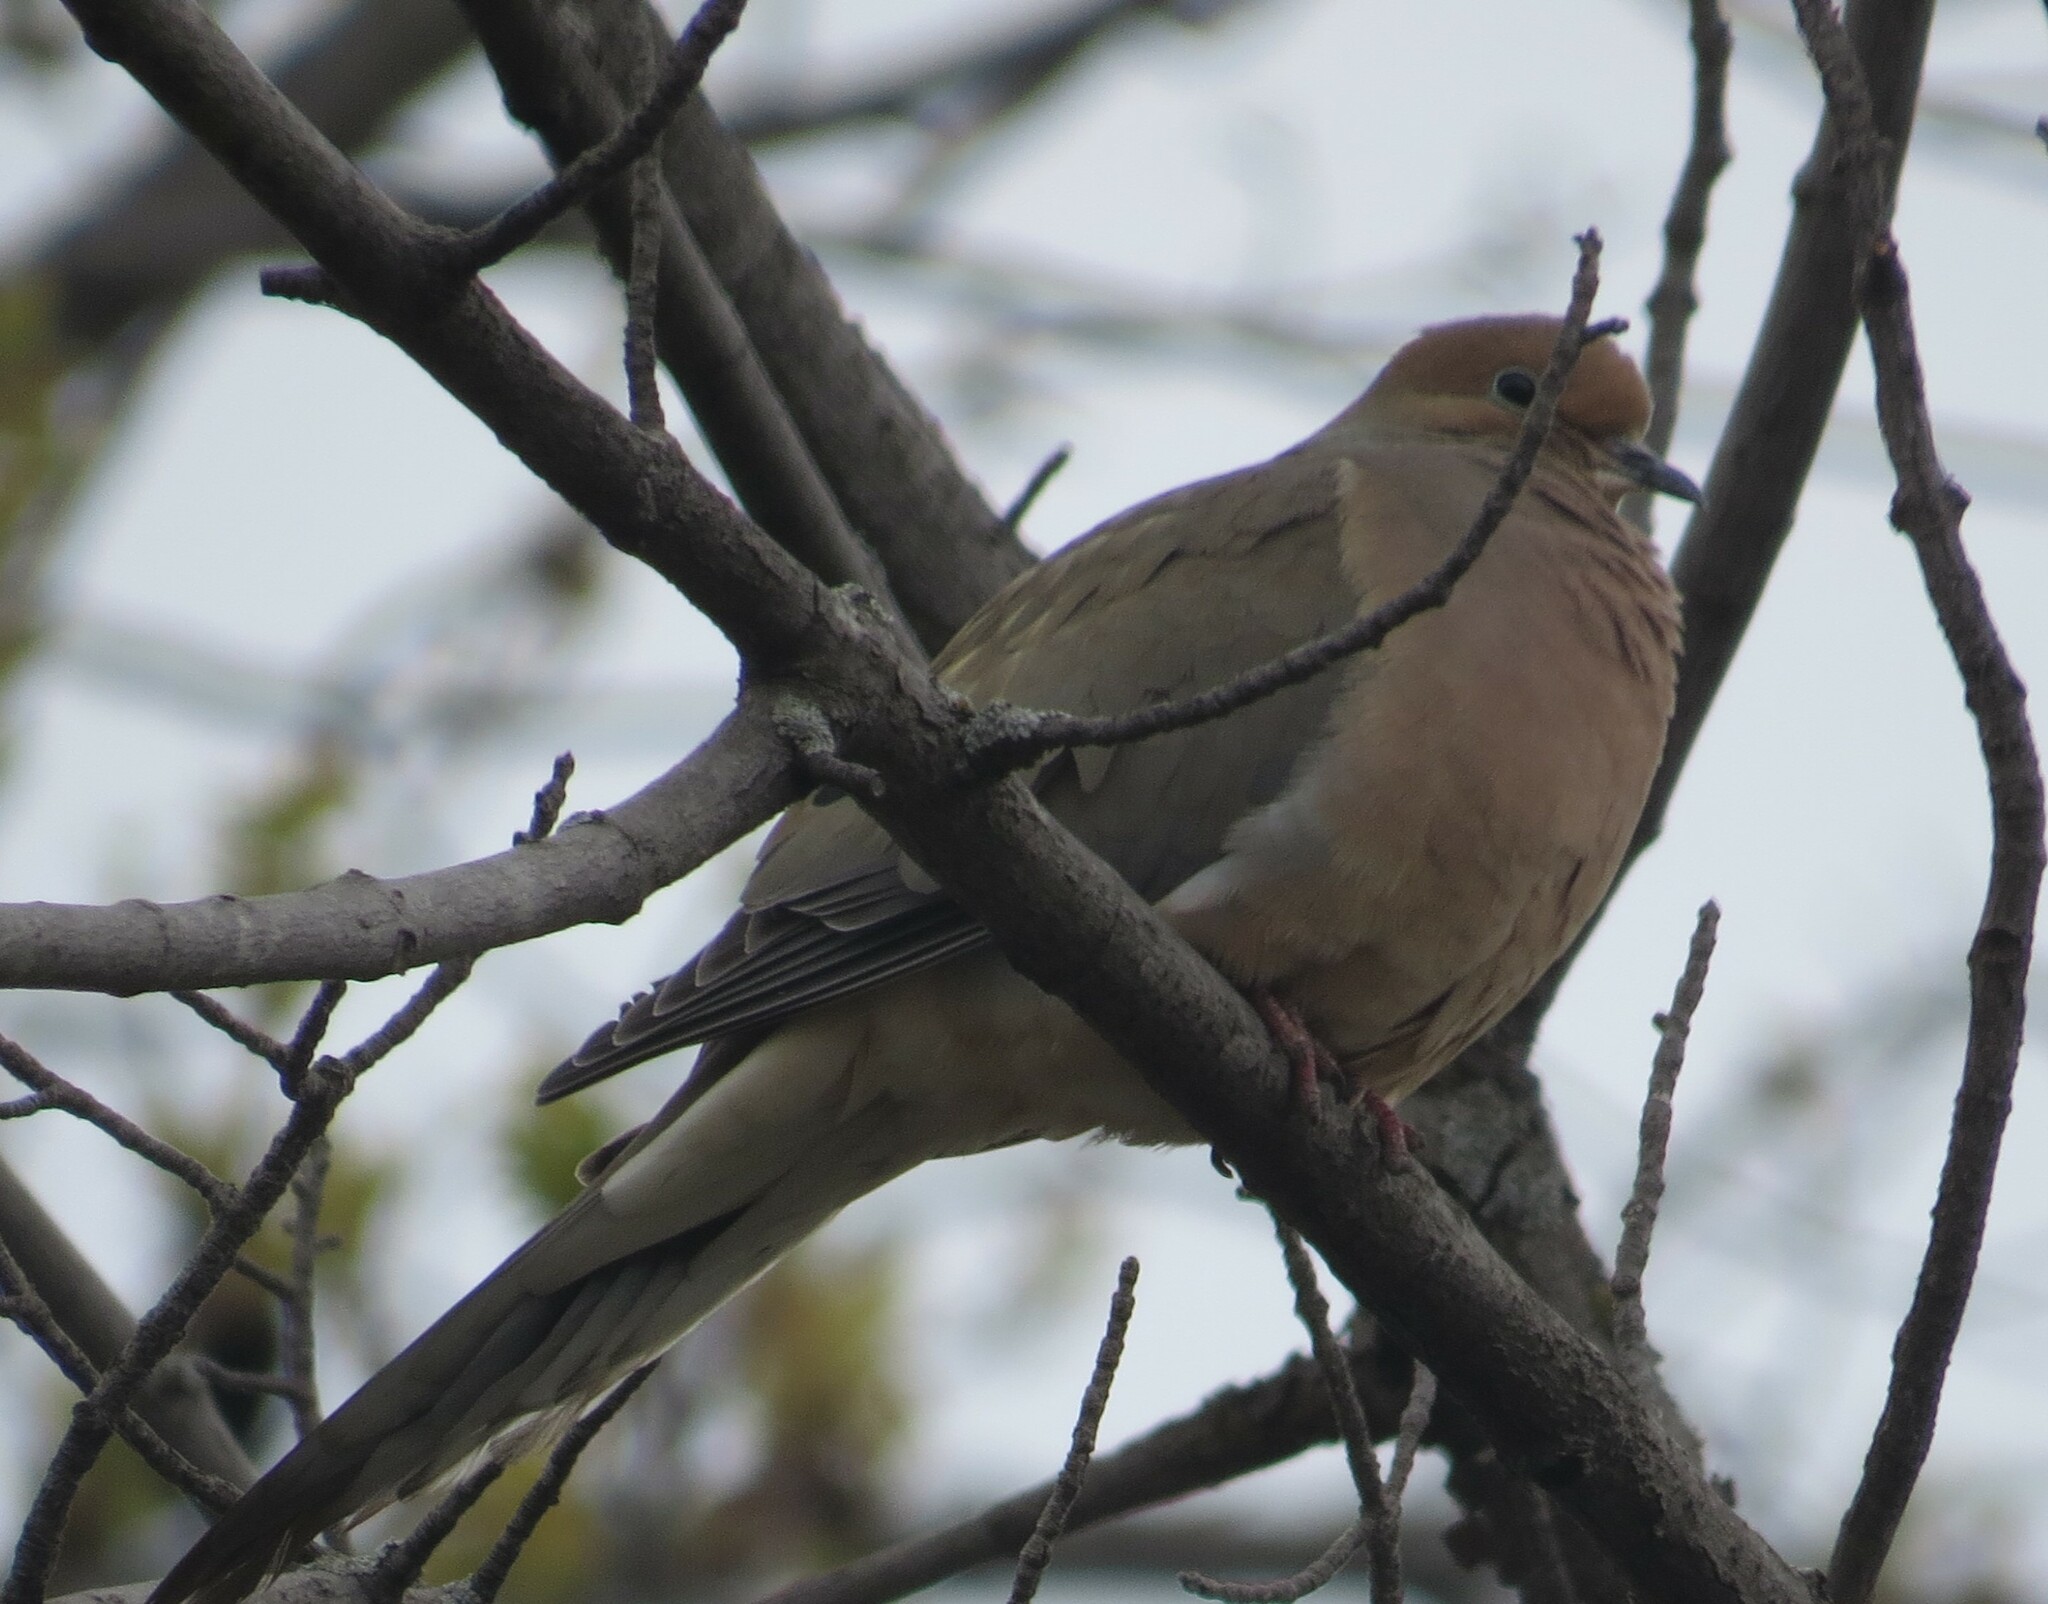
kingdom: Animalia
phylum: Chordata
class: Aves
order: Columbiformes
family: Columbidae
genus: Zenaida
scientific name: Zenaida macroura
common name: Mourning dove
